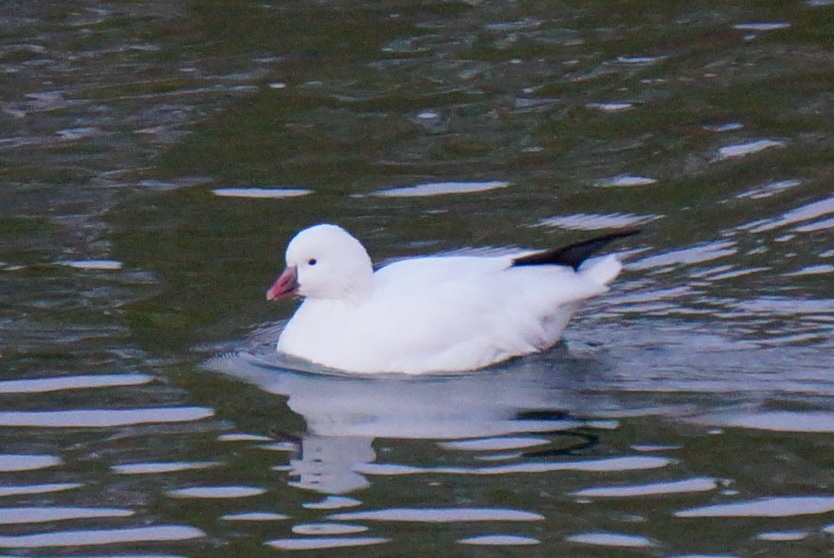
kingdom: Animalia
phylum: Chordata
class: Aves
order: Anseriformes
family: Anatidae
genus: Anser
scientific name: Anser rossii
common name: Ross's goose
